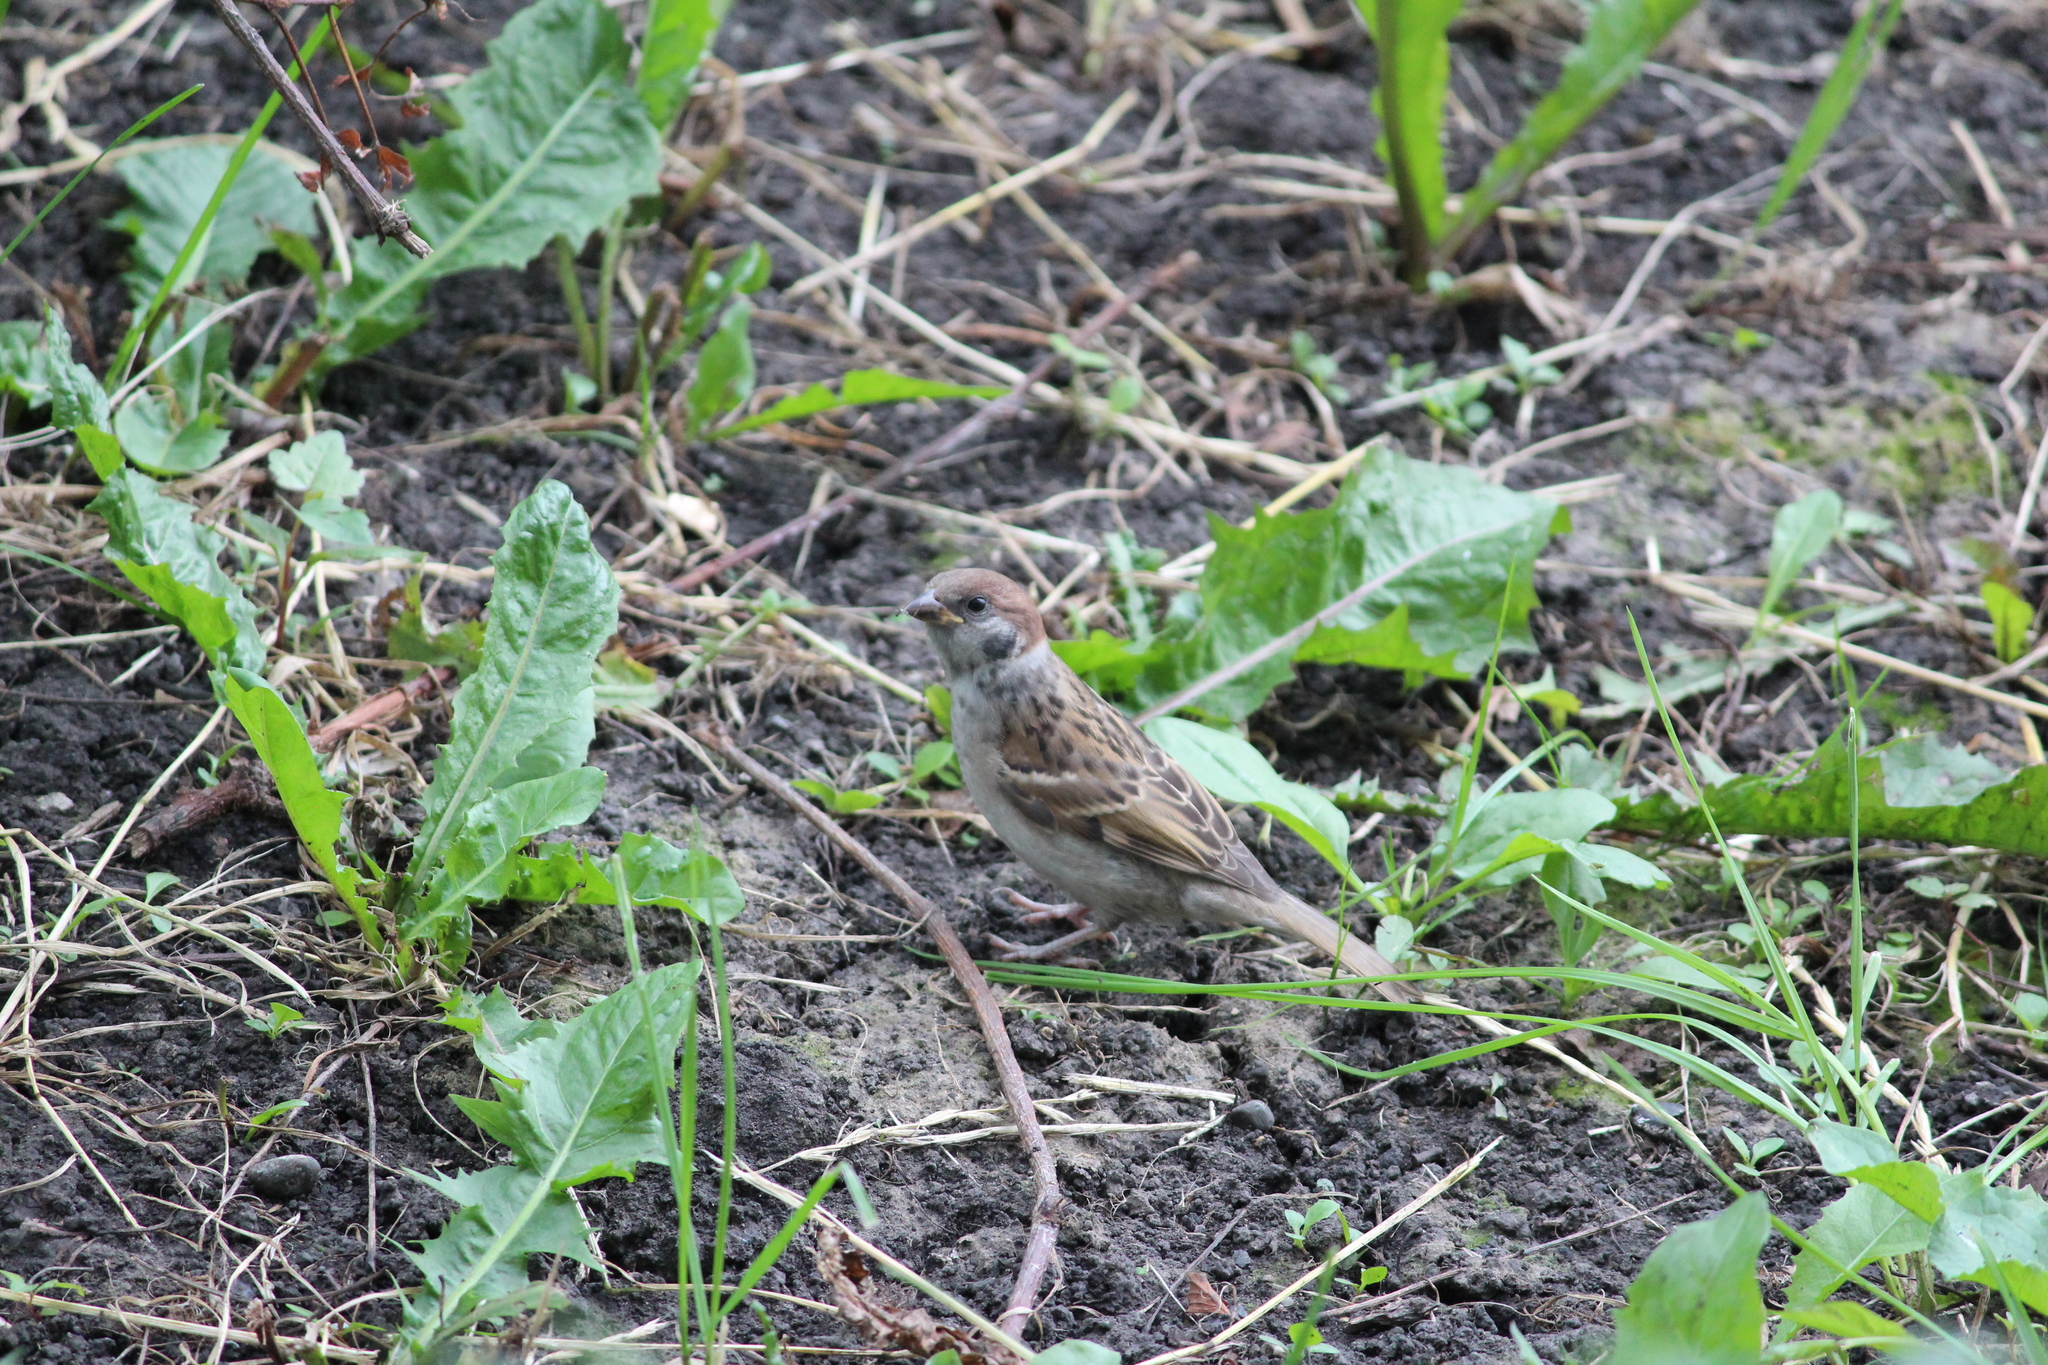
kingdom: Animalia
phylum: Chordata
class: Aves
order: Passeriformes
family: Passeridae
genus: Passer
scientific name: Passer montanus
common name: Eurasian tree sparrow
